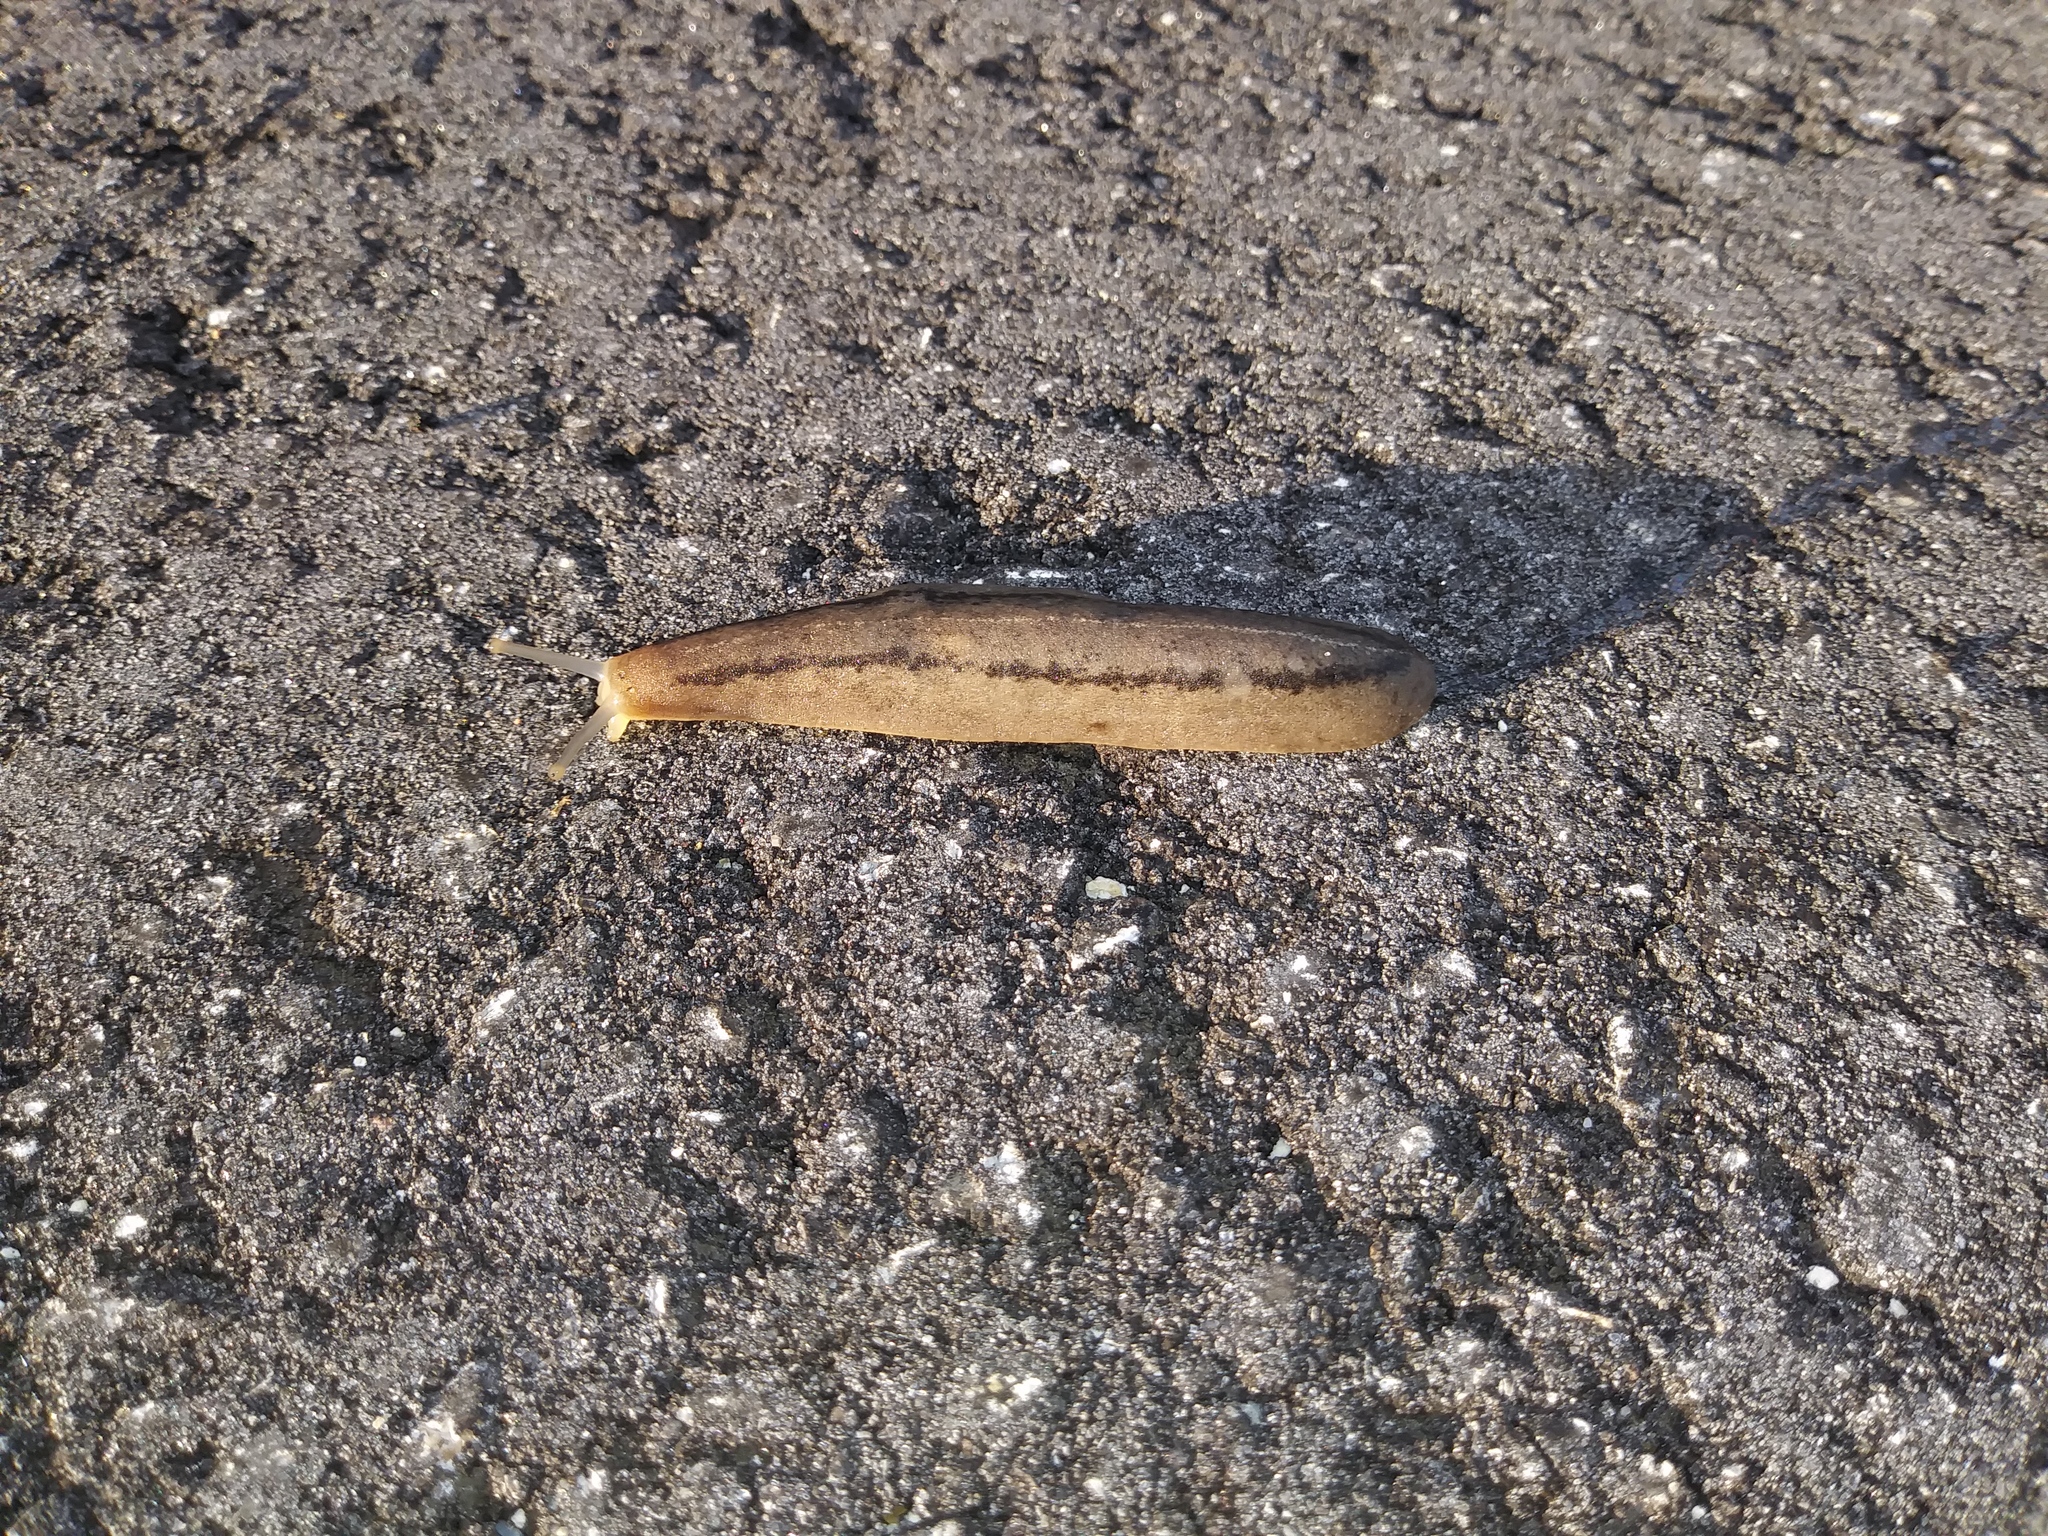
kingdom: Animalia
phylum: Mollusca
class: Gastropoda
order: Systellommatophora
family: Veronicellidae
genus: Leidyula
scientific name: Leidyula floridana
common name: Florida leatherleaf
